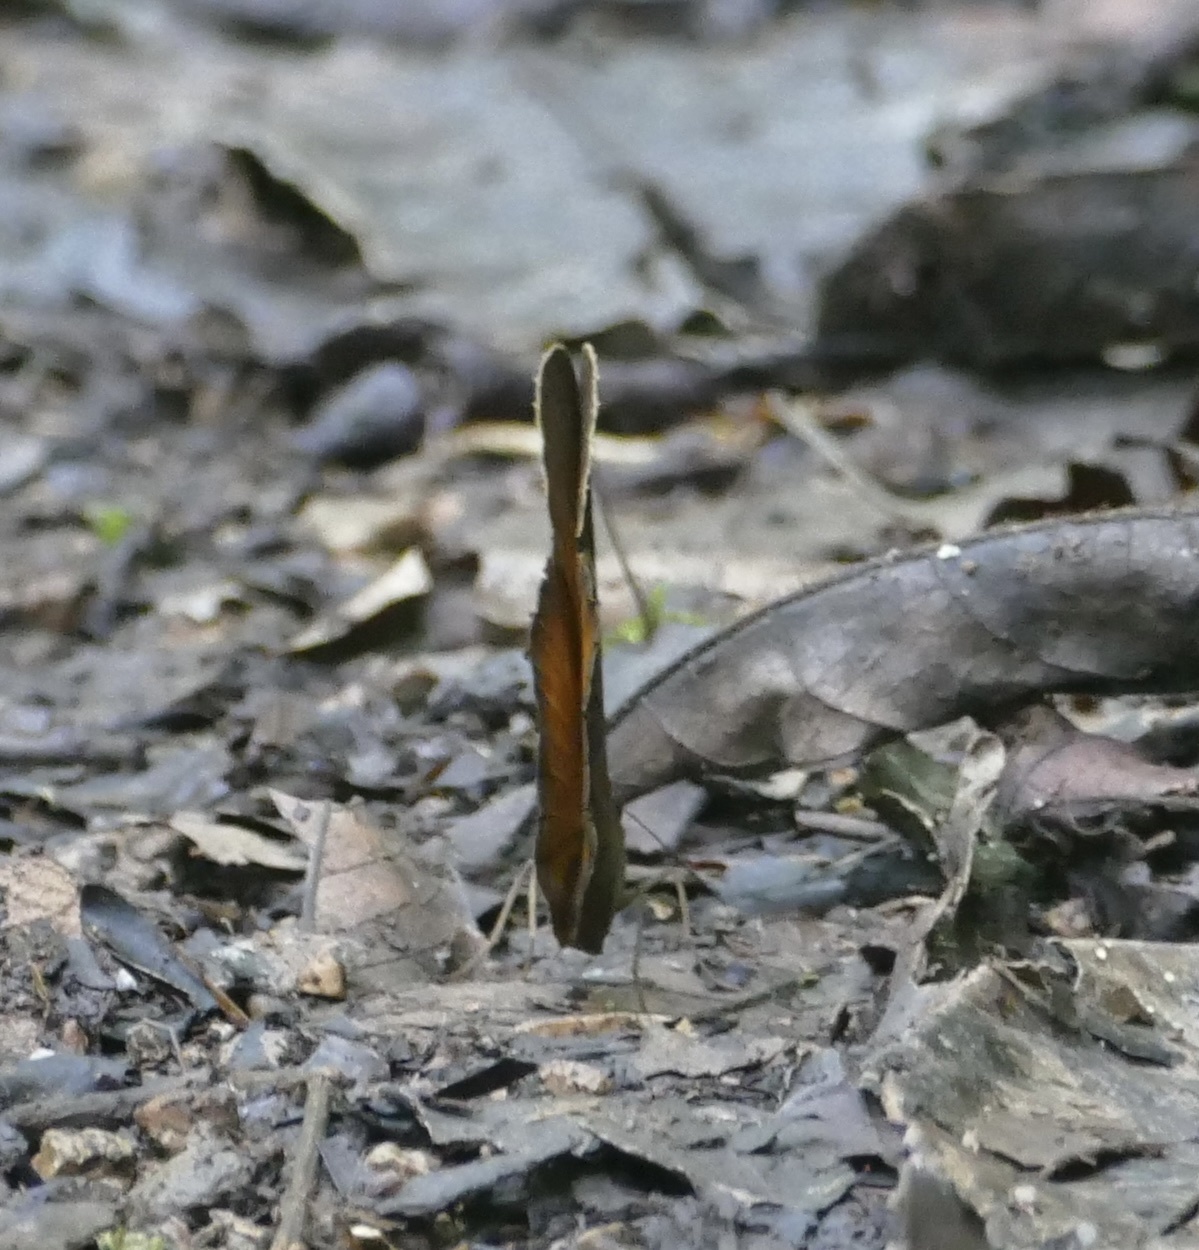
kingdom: Animalia
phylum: Arthropoda
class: Insecta
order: Lepidoptera
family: Nymphalidae
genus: Faunis
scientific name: Faunis menado
